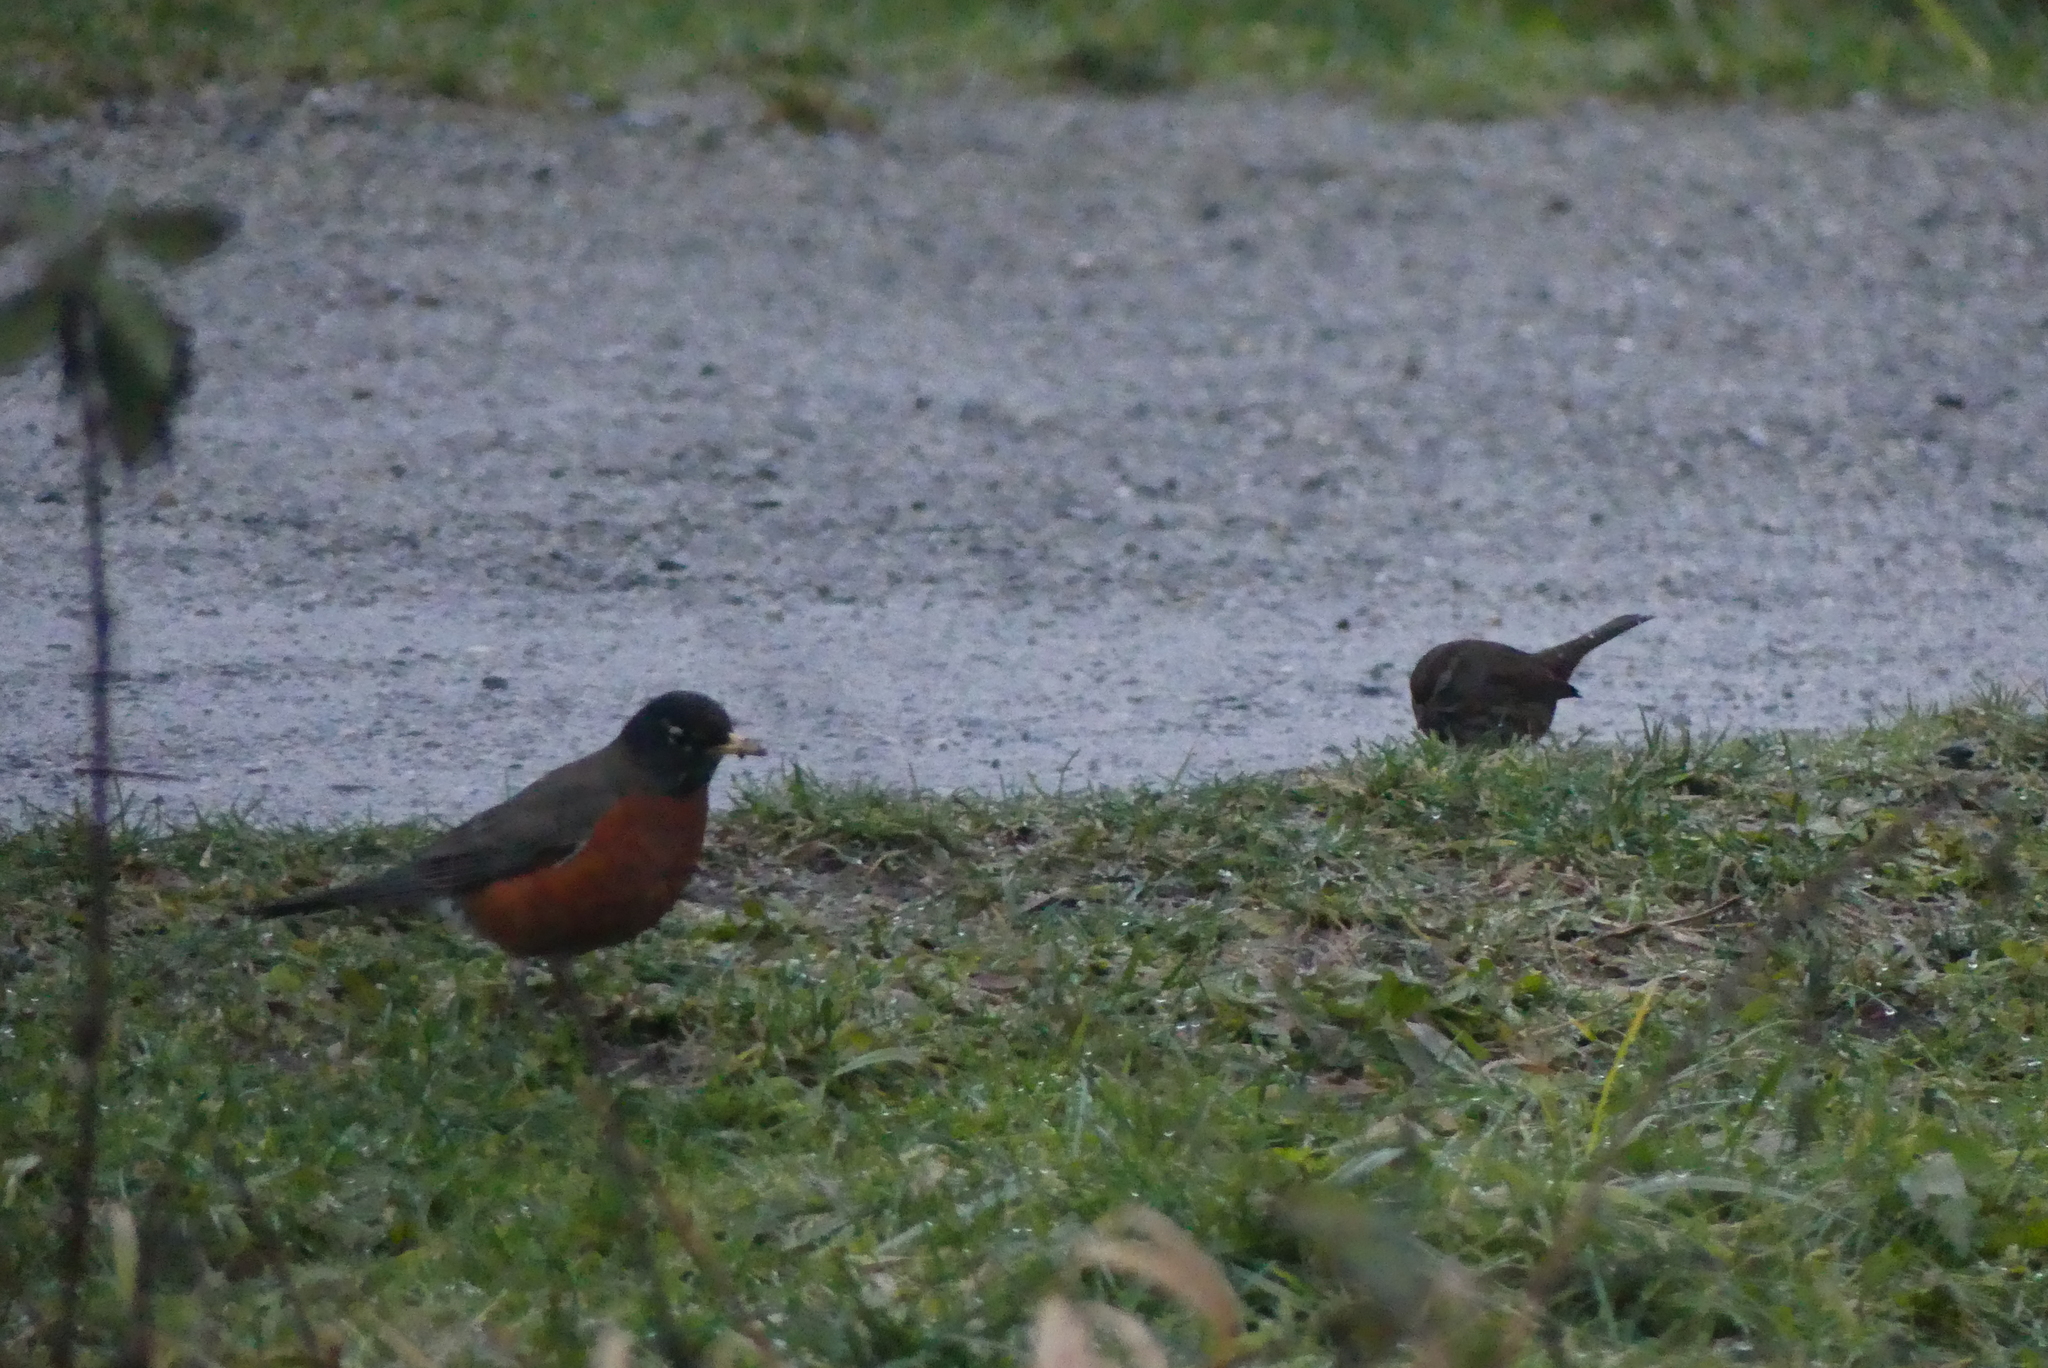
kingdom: Animalia
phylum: Chordata
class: Aves
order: Passeriformes
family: Turdidae
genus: Turdus
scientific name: Turdus migratorius
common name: American robin
